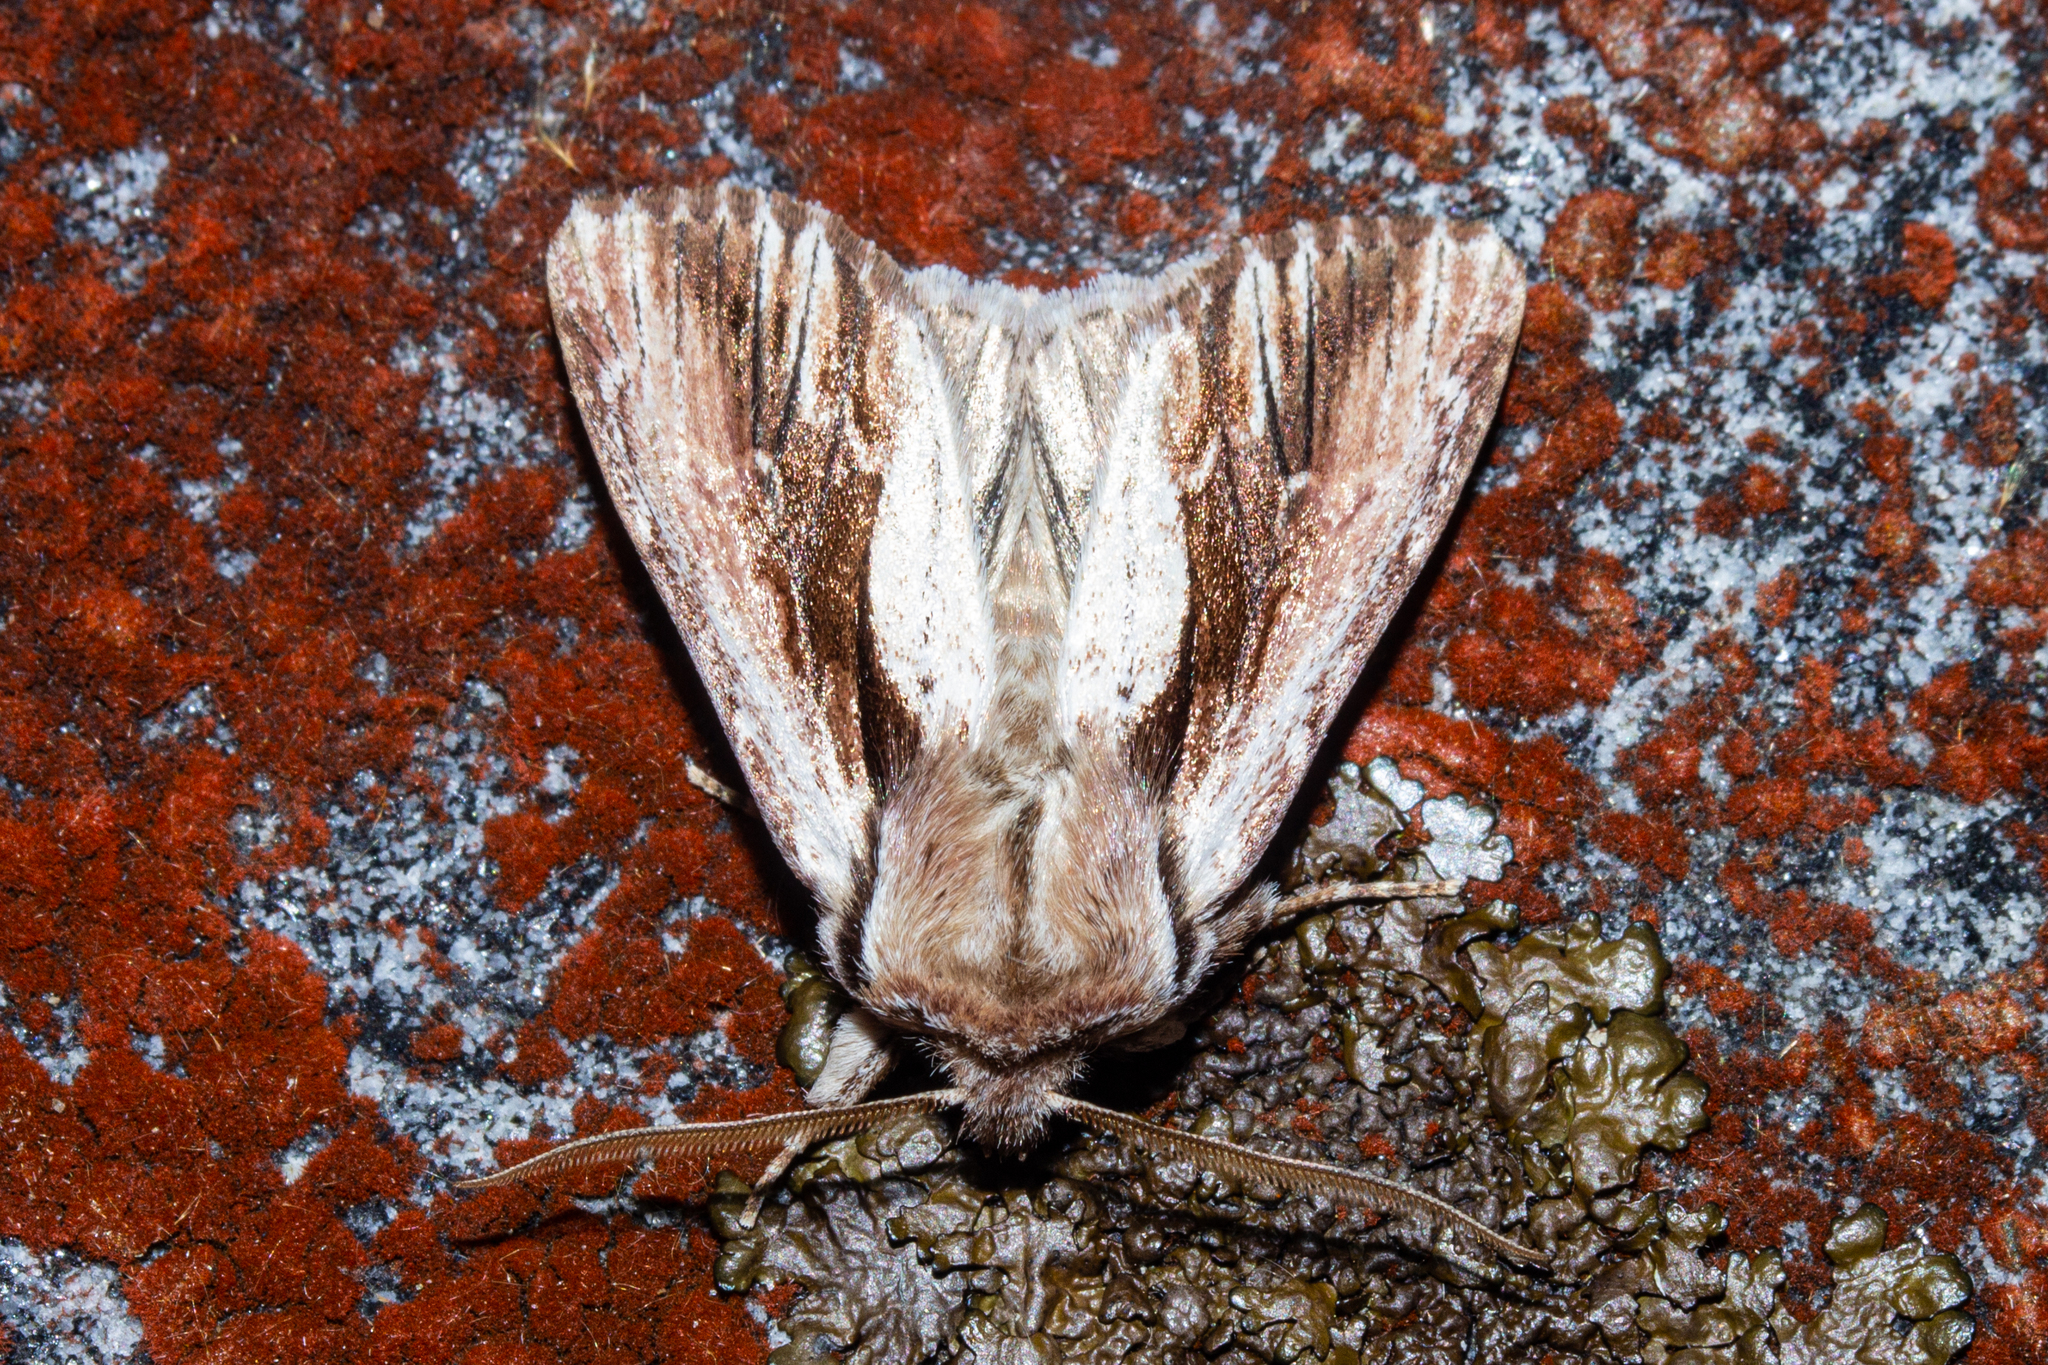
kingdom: Animalia
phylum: Arthropoda
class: Insecta
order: Lepidoptera
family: Noctuidae
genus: Ichneutica
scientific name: Ichneutica
